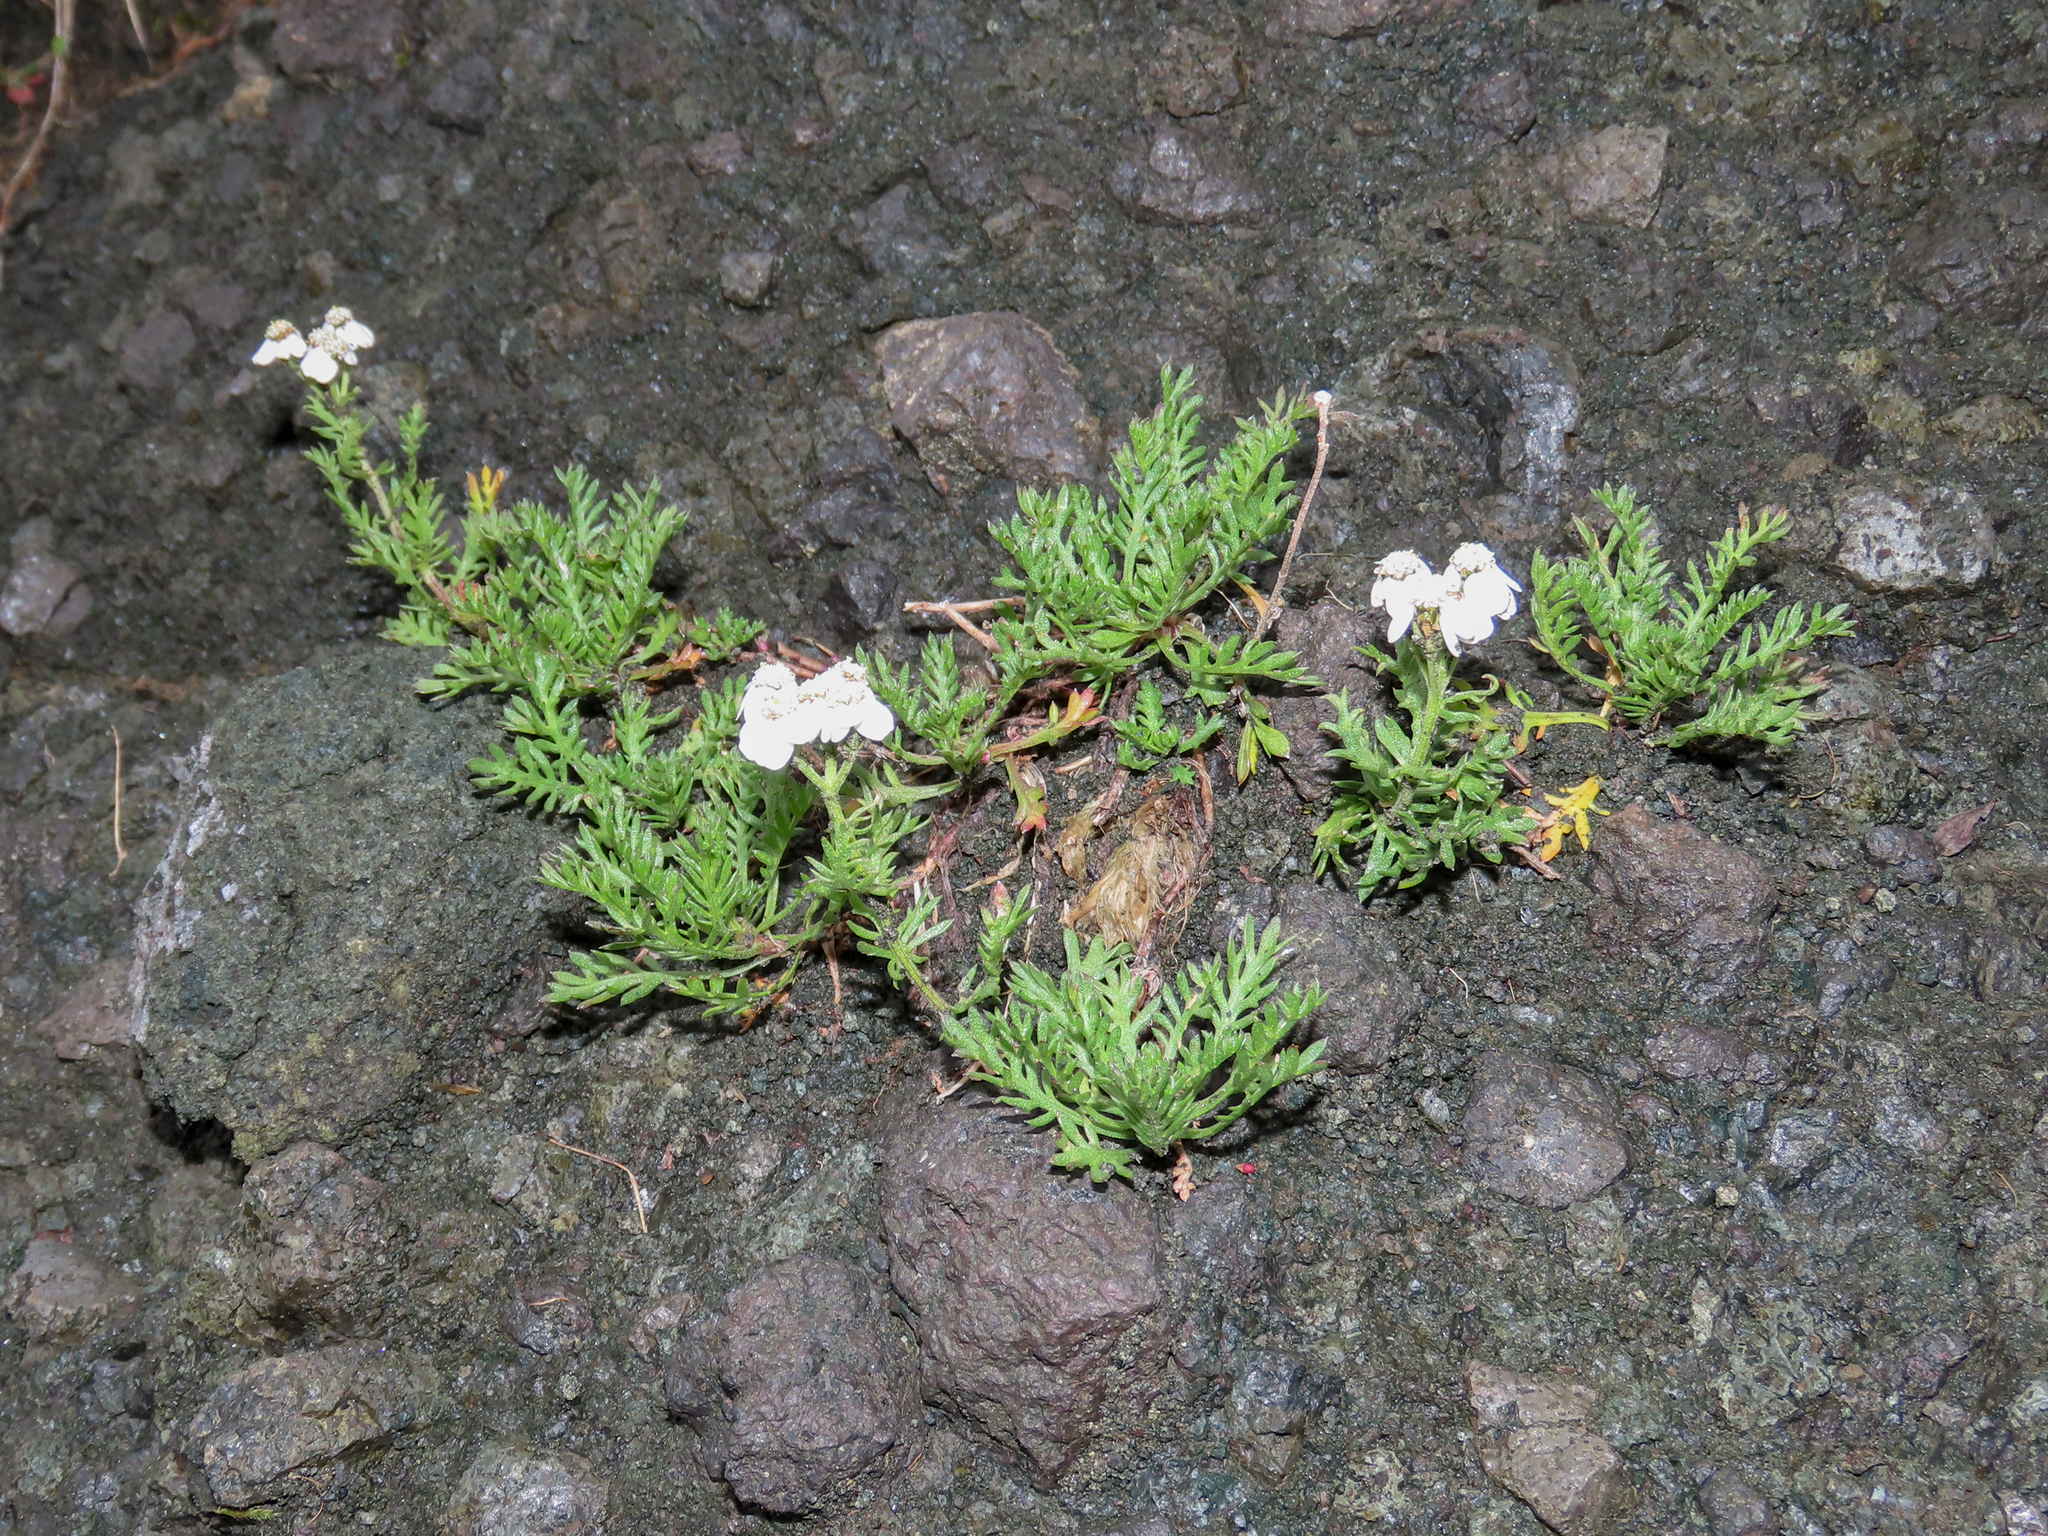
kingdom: Plantae
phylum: Tracheophyta
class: Magnoliopsida
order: Asterales
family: Asteraceae
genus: Achillea
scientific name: Achillea erba-rotta
